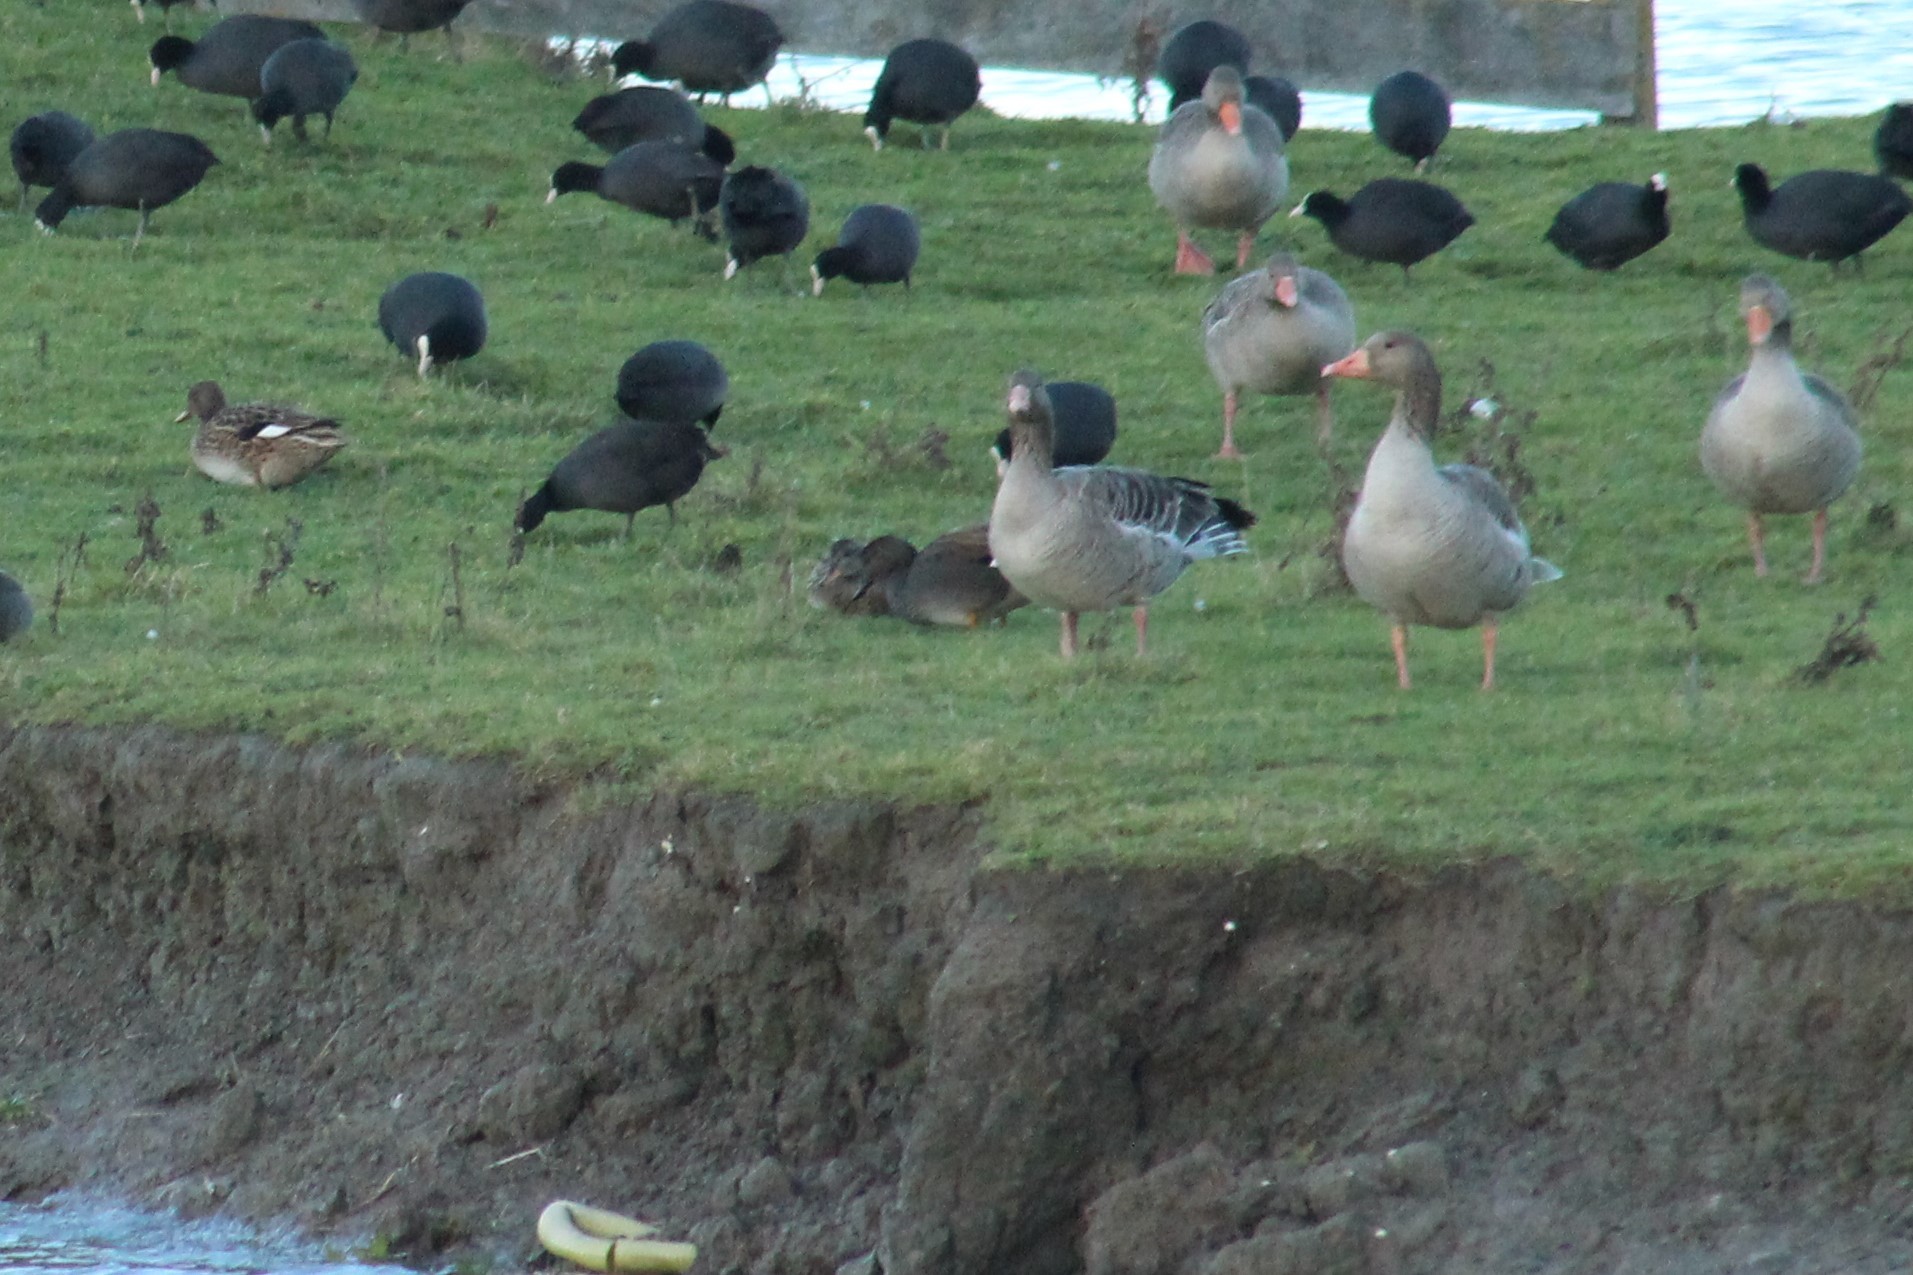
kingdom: Animalia
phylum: Chordata
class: Aves
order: Anseriformes
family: Anatidae
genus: Mareca
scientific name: Mareca strepera
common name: Gadwall
